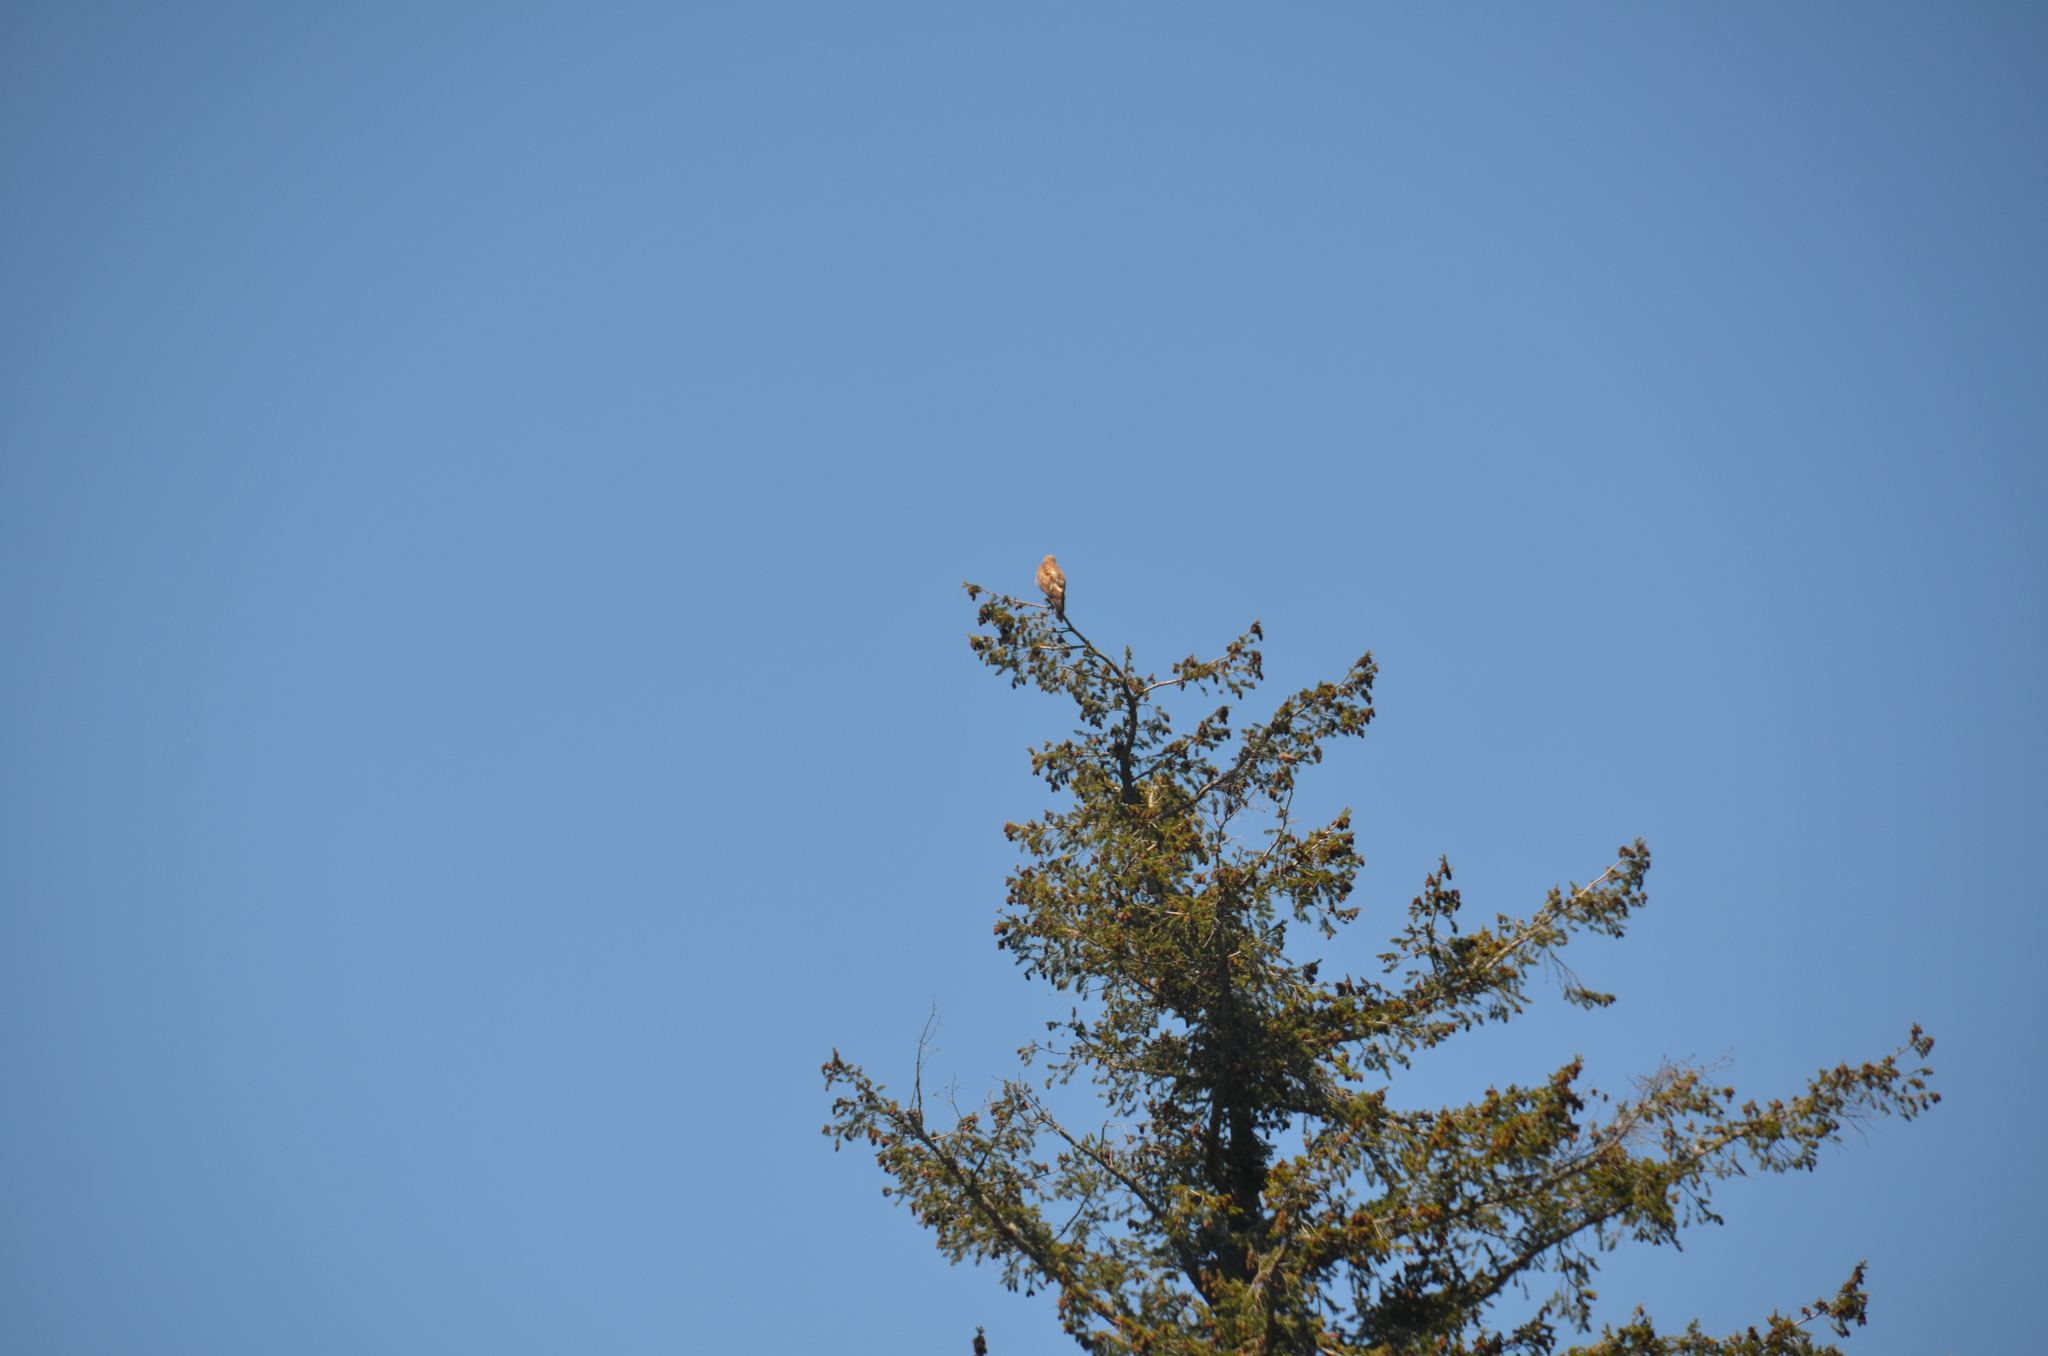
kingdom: Animalia
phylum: Chordata
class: Aves
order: Accipitriformes
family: Accipitridae
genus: Buteo
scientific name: Buteo jamaicensis
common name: Red-tailed hawk
